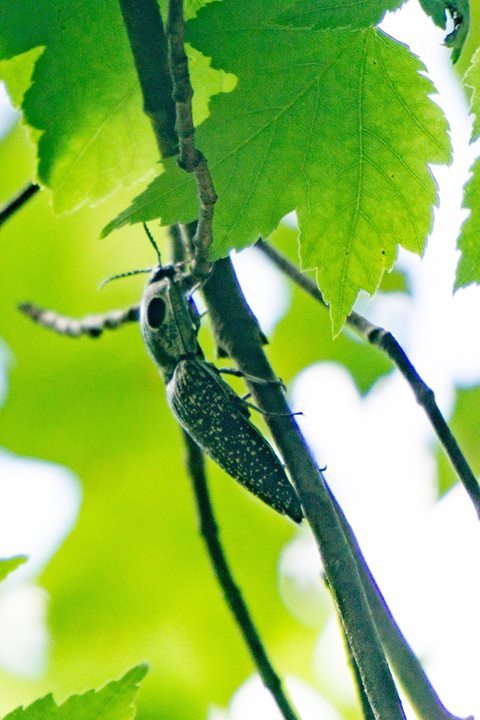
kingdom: Animalia
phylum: Arthropoda
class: Insecta
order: Coleoptera
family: Elateridae
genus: Alaus
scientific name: Alaus oculatus
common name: Eastern eyed click beetle
